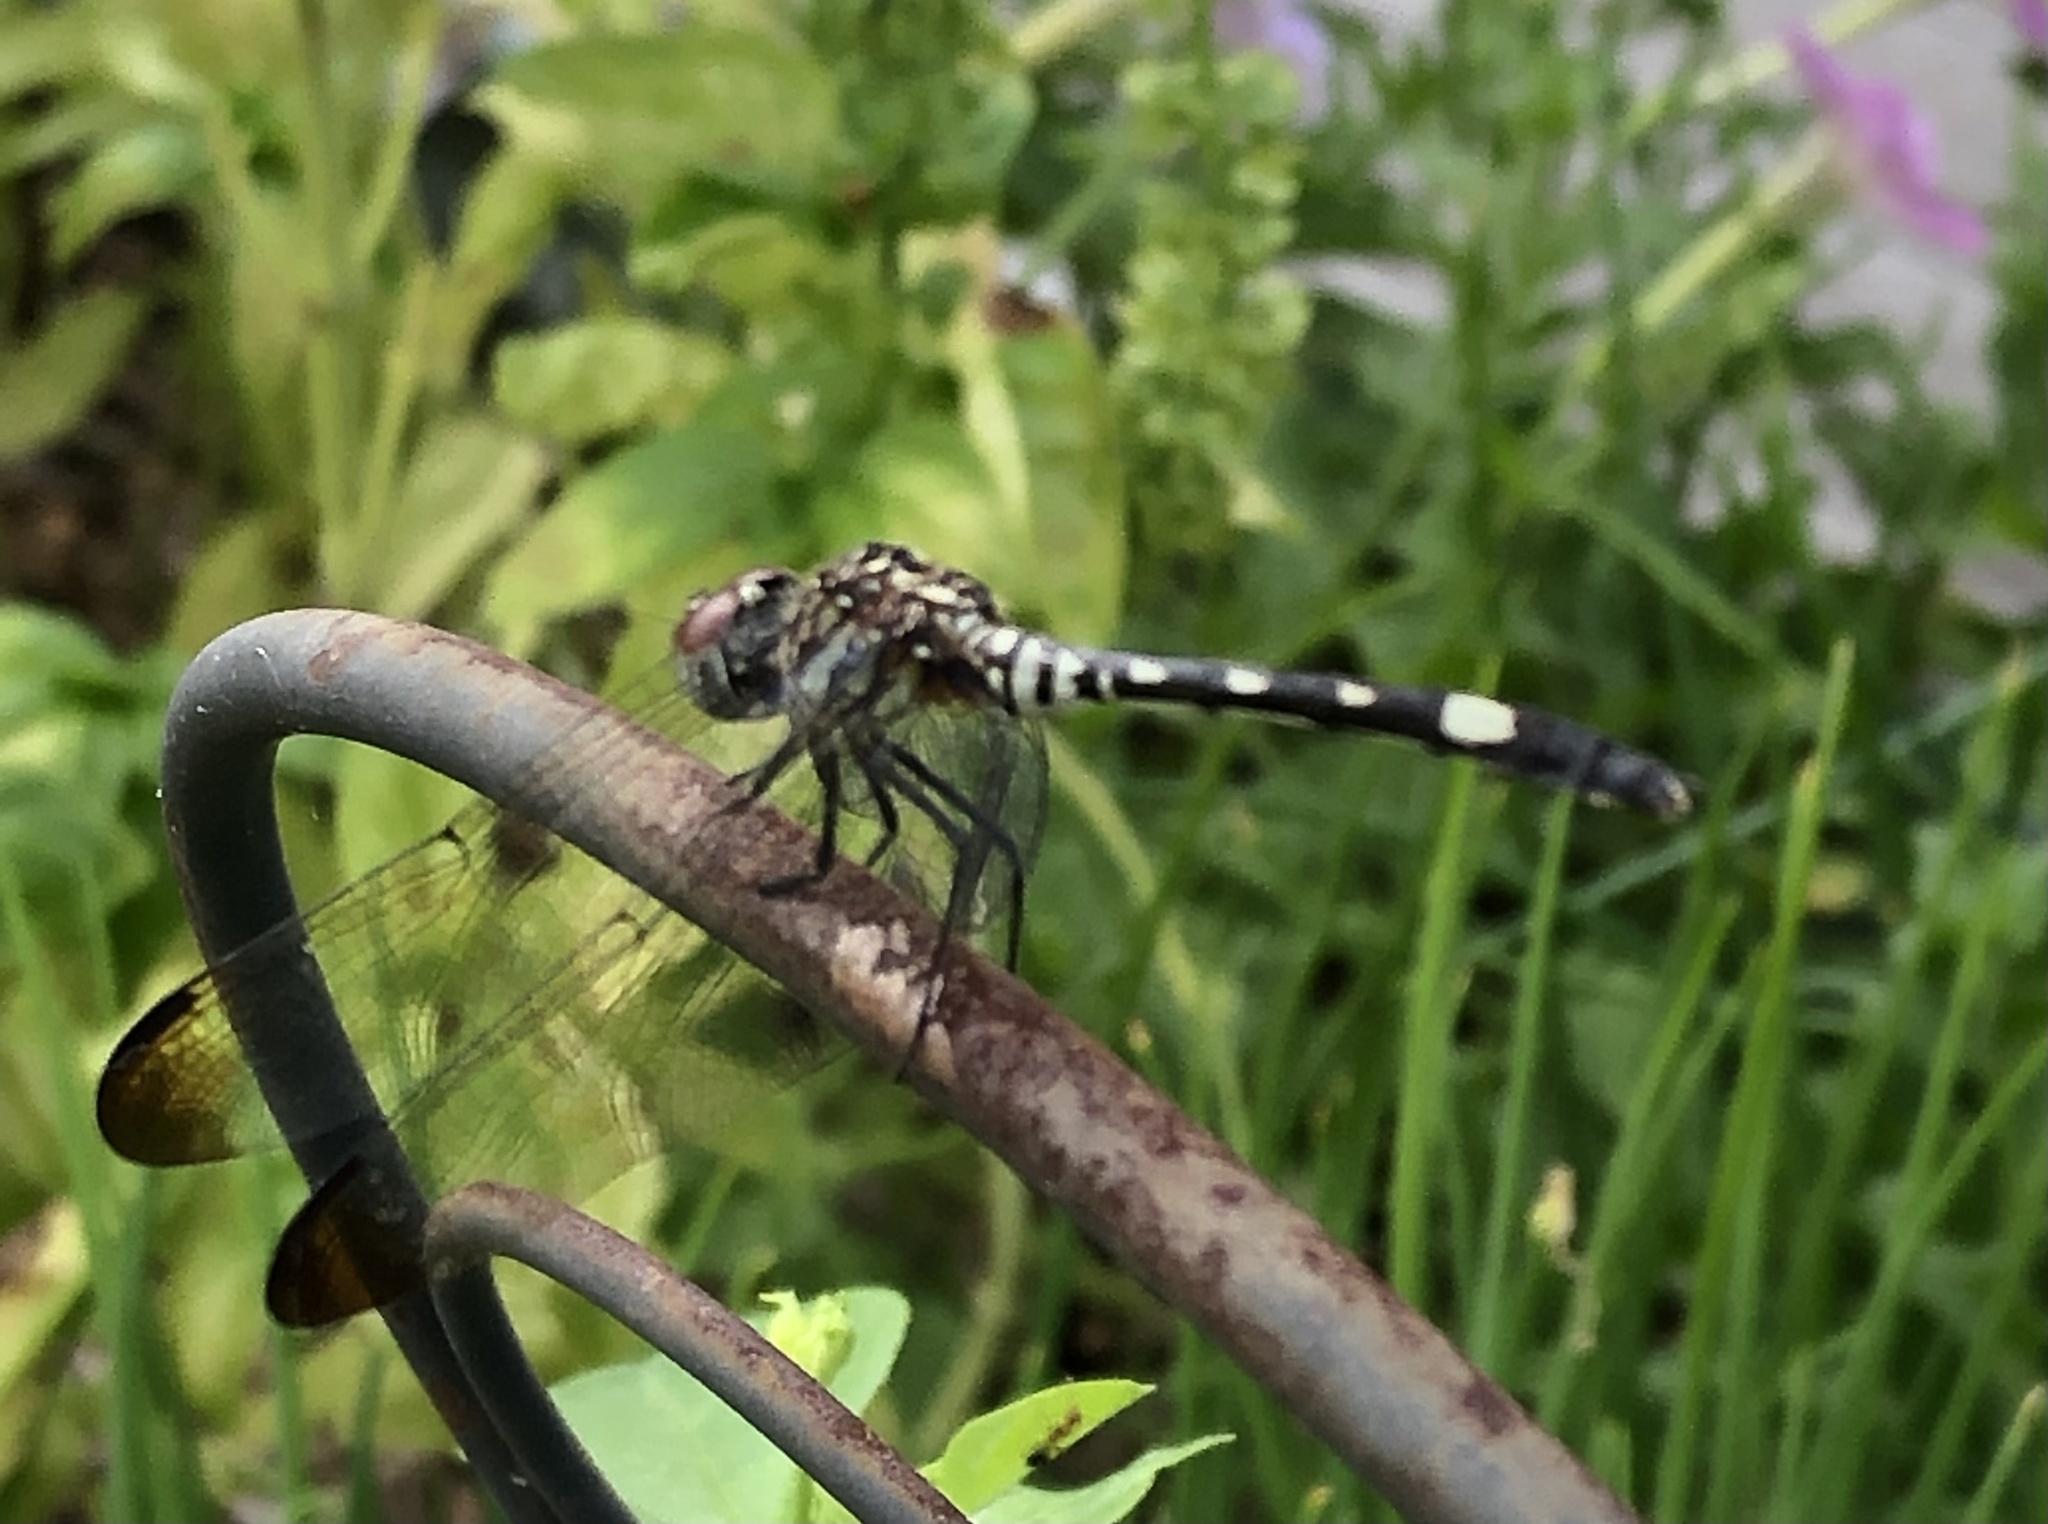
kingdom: Animalia
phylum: Arthropoda
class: Insecta
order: Odonata
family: Libellulidae
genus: Dythemis
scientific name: Dythemis velox
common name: Swift setwing
